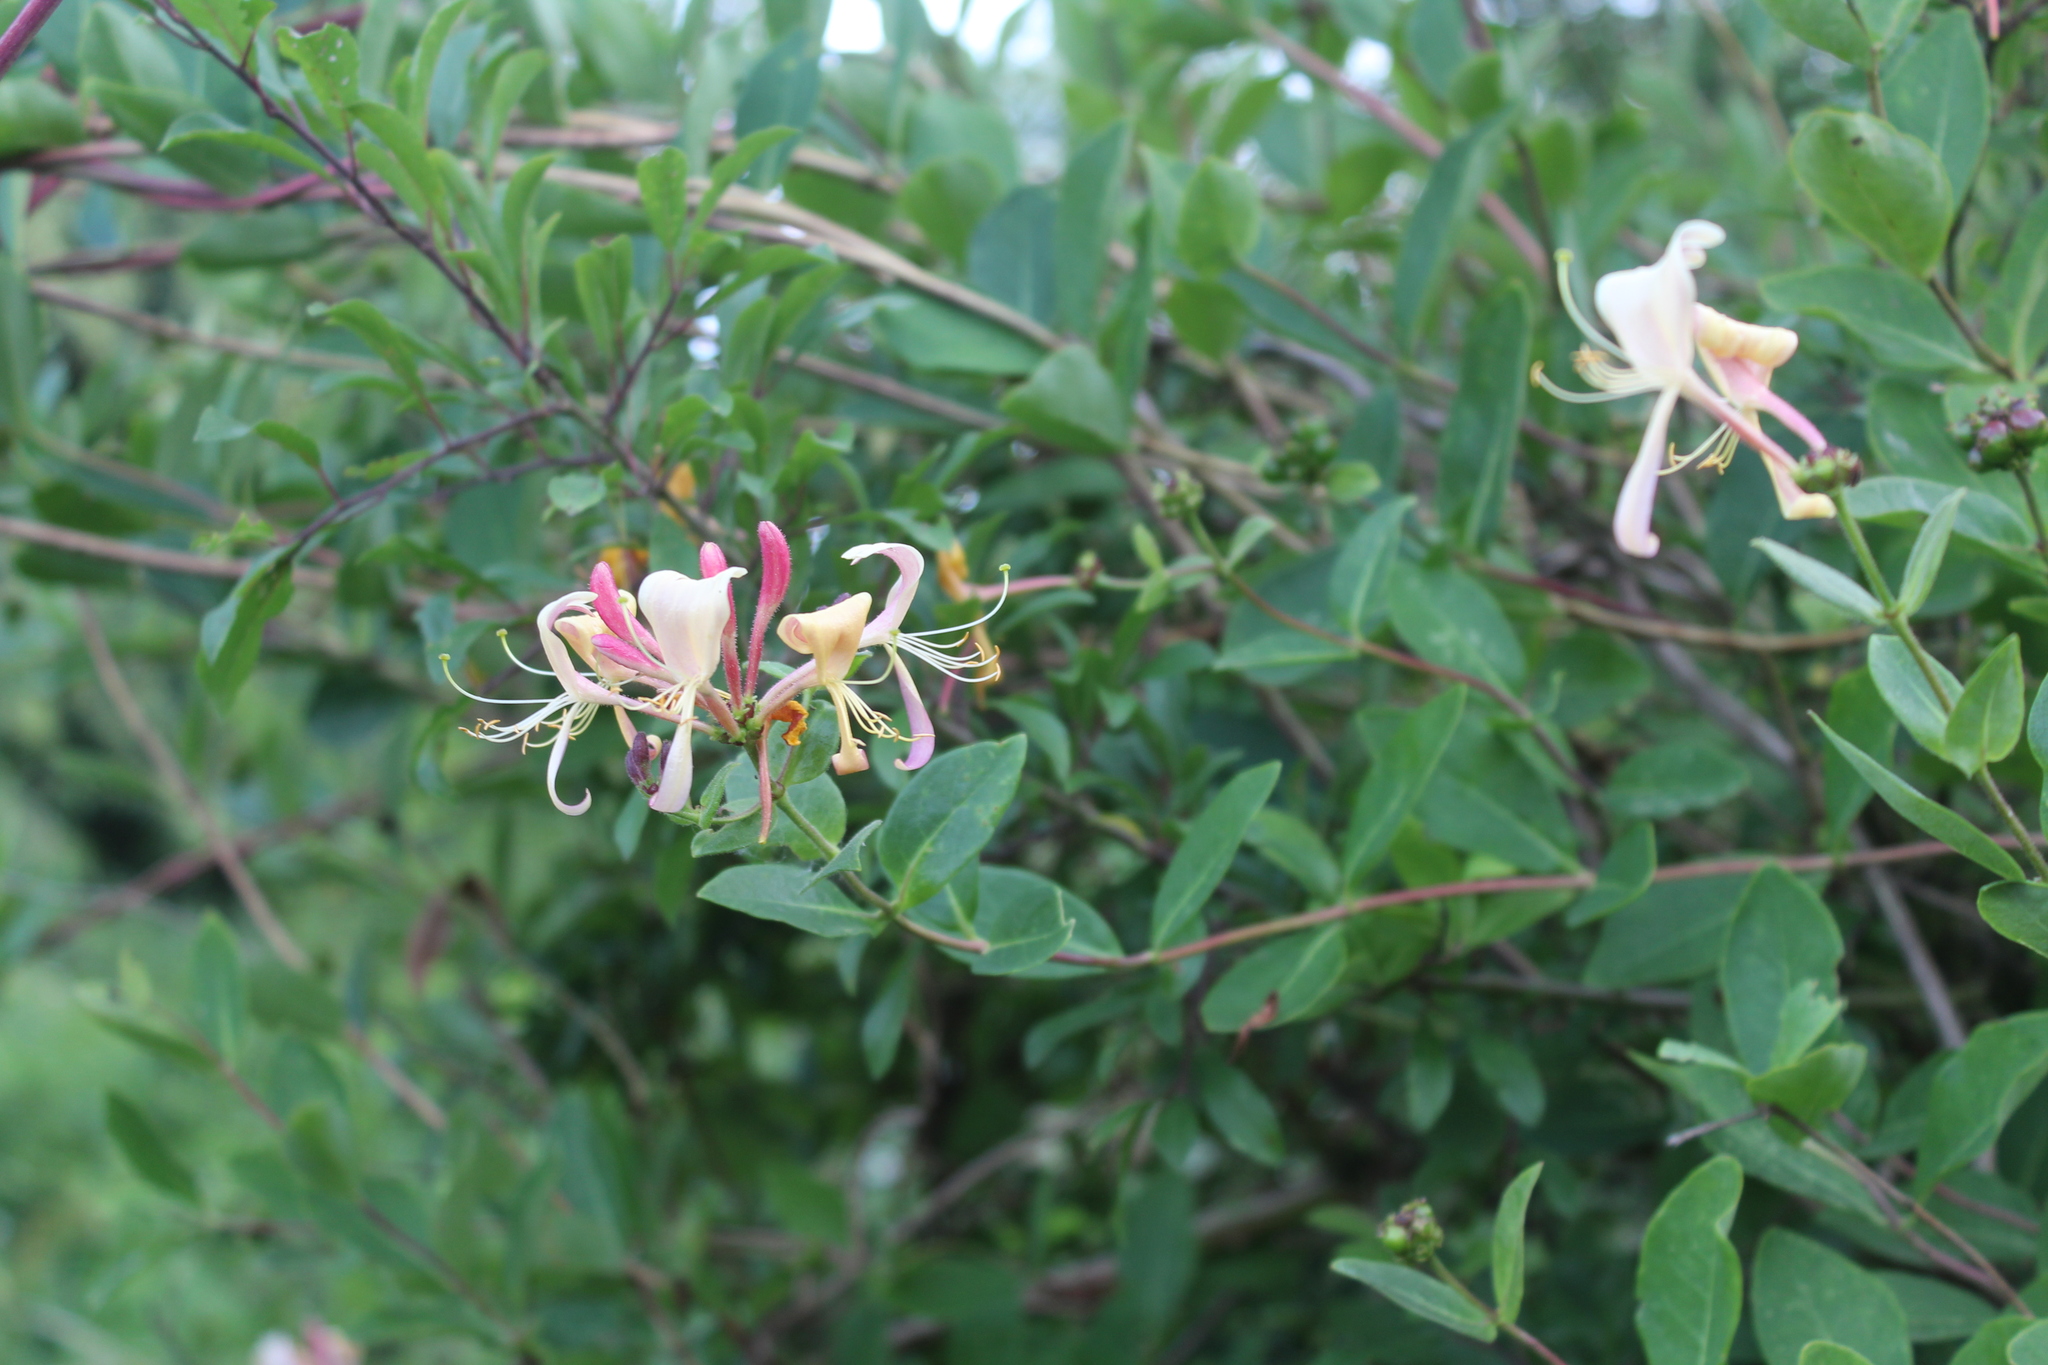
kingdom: Plantae
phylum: Tracheophyta
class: Magnoliopsida
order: Dipsacales
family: Caprifoliaceae
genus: Lonicera
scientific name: Lonicera periclymenum
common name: European honeysuckle
